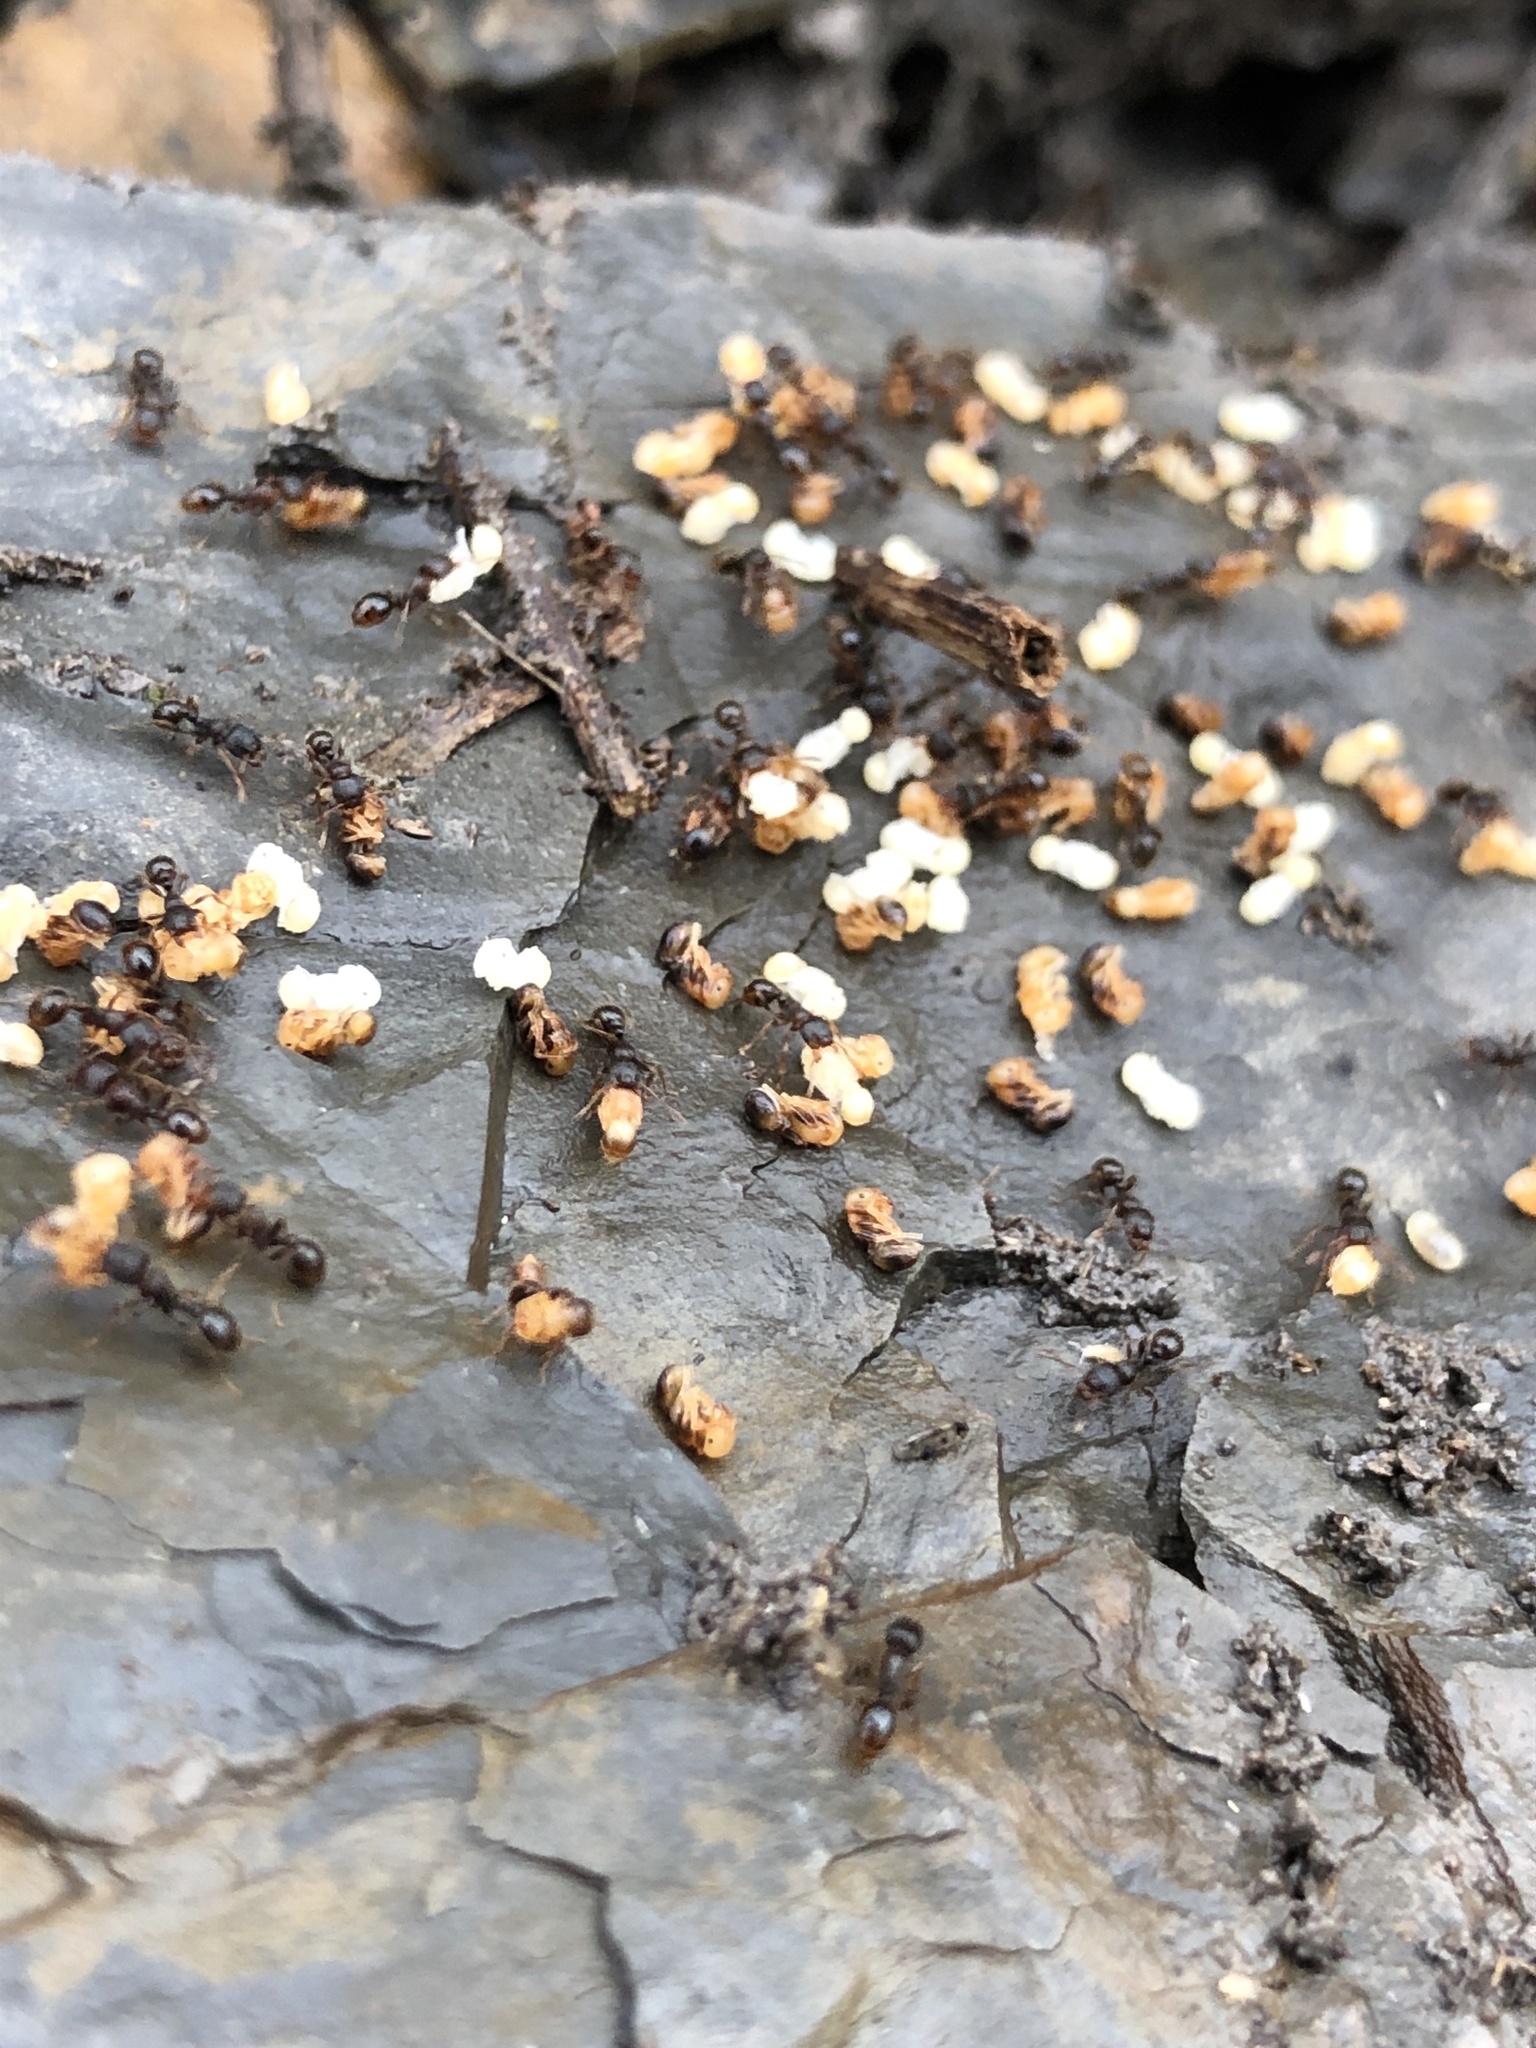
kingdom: Animalia
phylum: Arthropoda
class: Insecta
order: Hymenoptera
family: Formicidae
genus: Tetramorium
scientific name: Tetramorium immigrans
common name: Pavement ant
